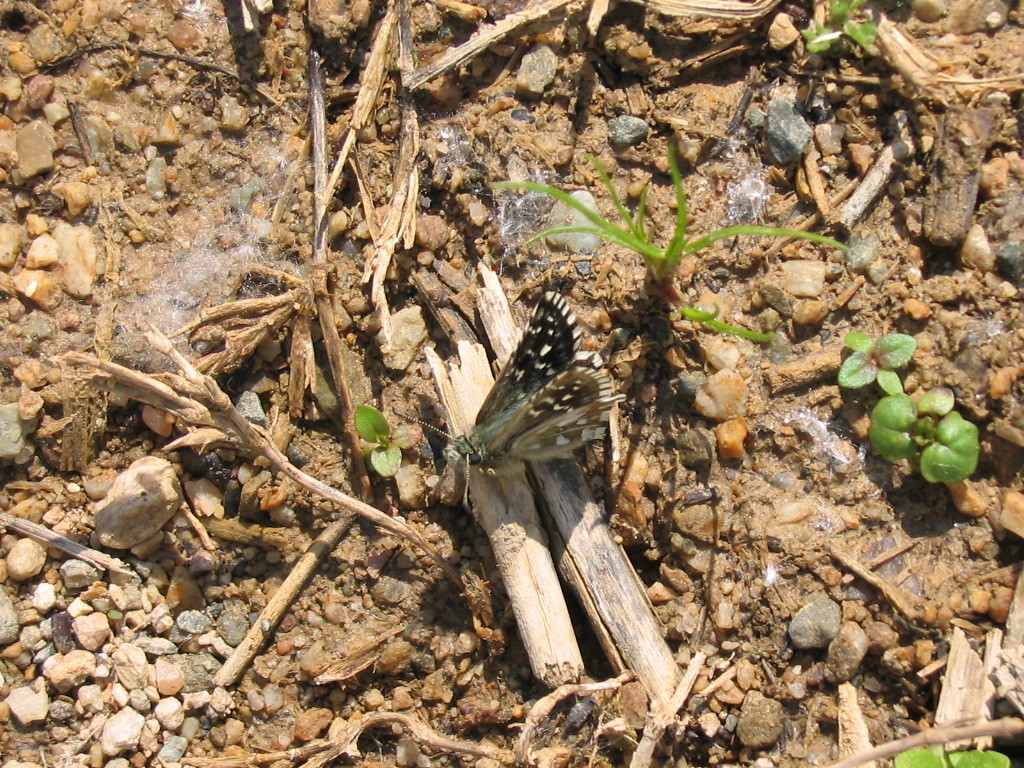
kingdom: Animalia
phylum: Arthropoda
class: Insecta
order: Lepidoptera
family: Hesperiidae
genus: Pyrgus
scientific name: Pyrgus malvae
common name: Grizzled skipper
